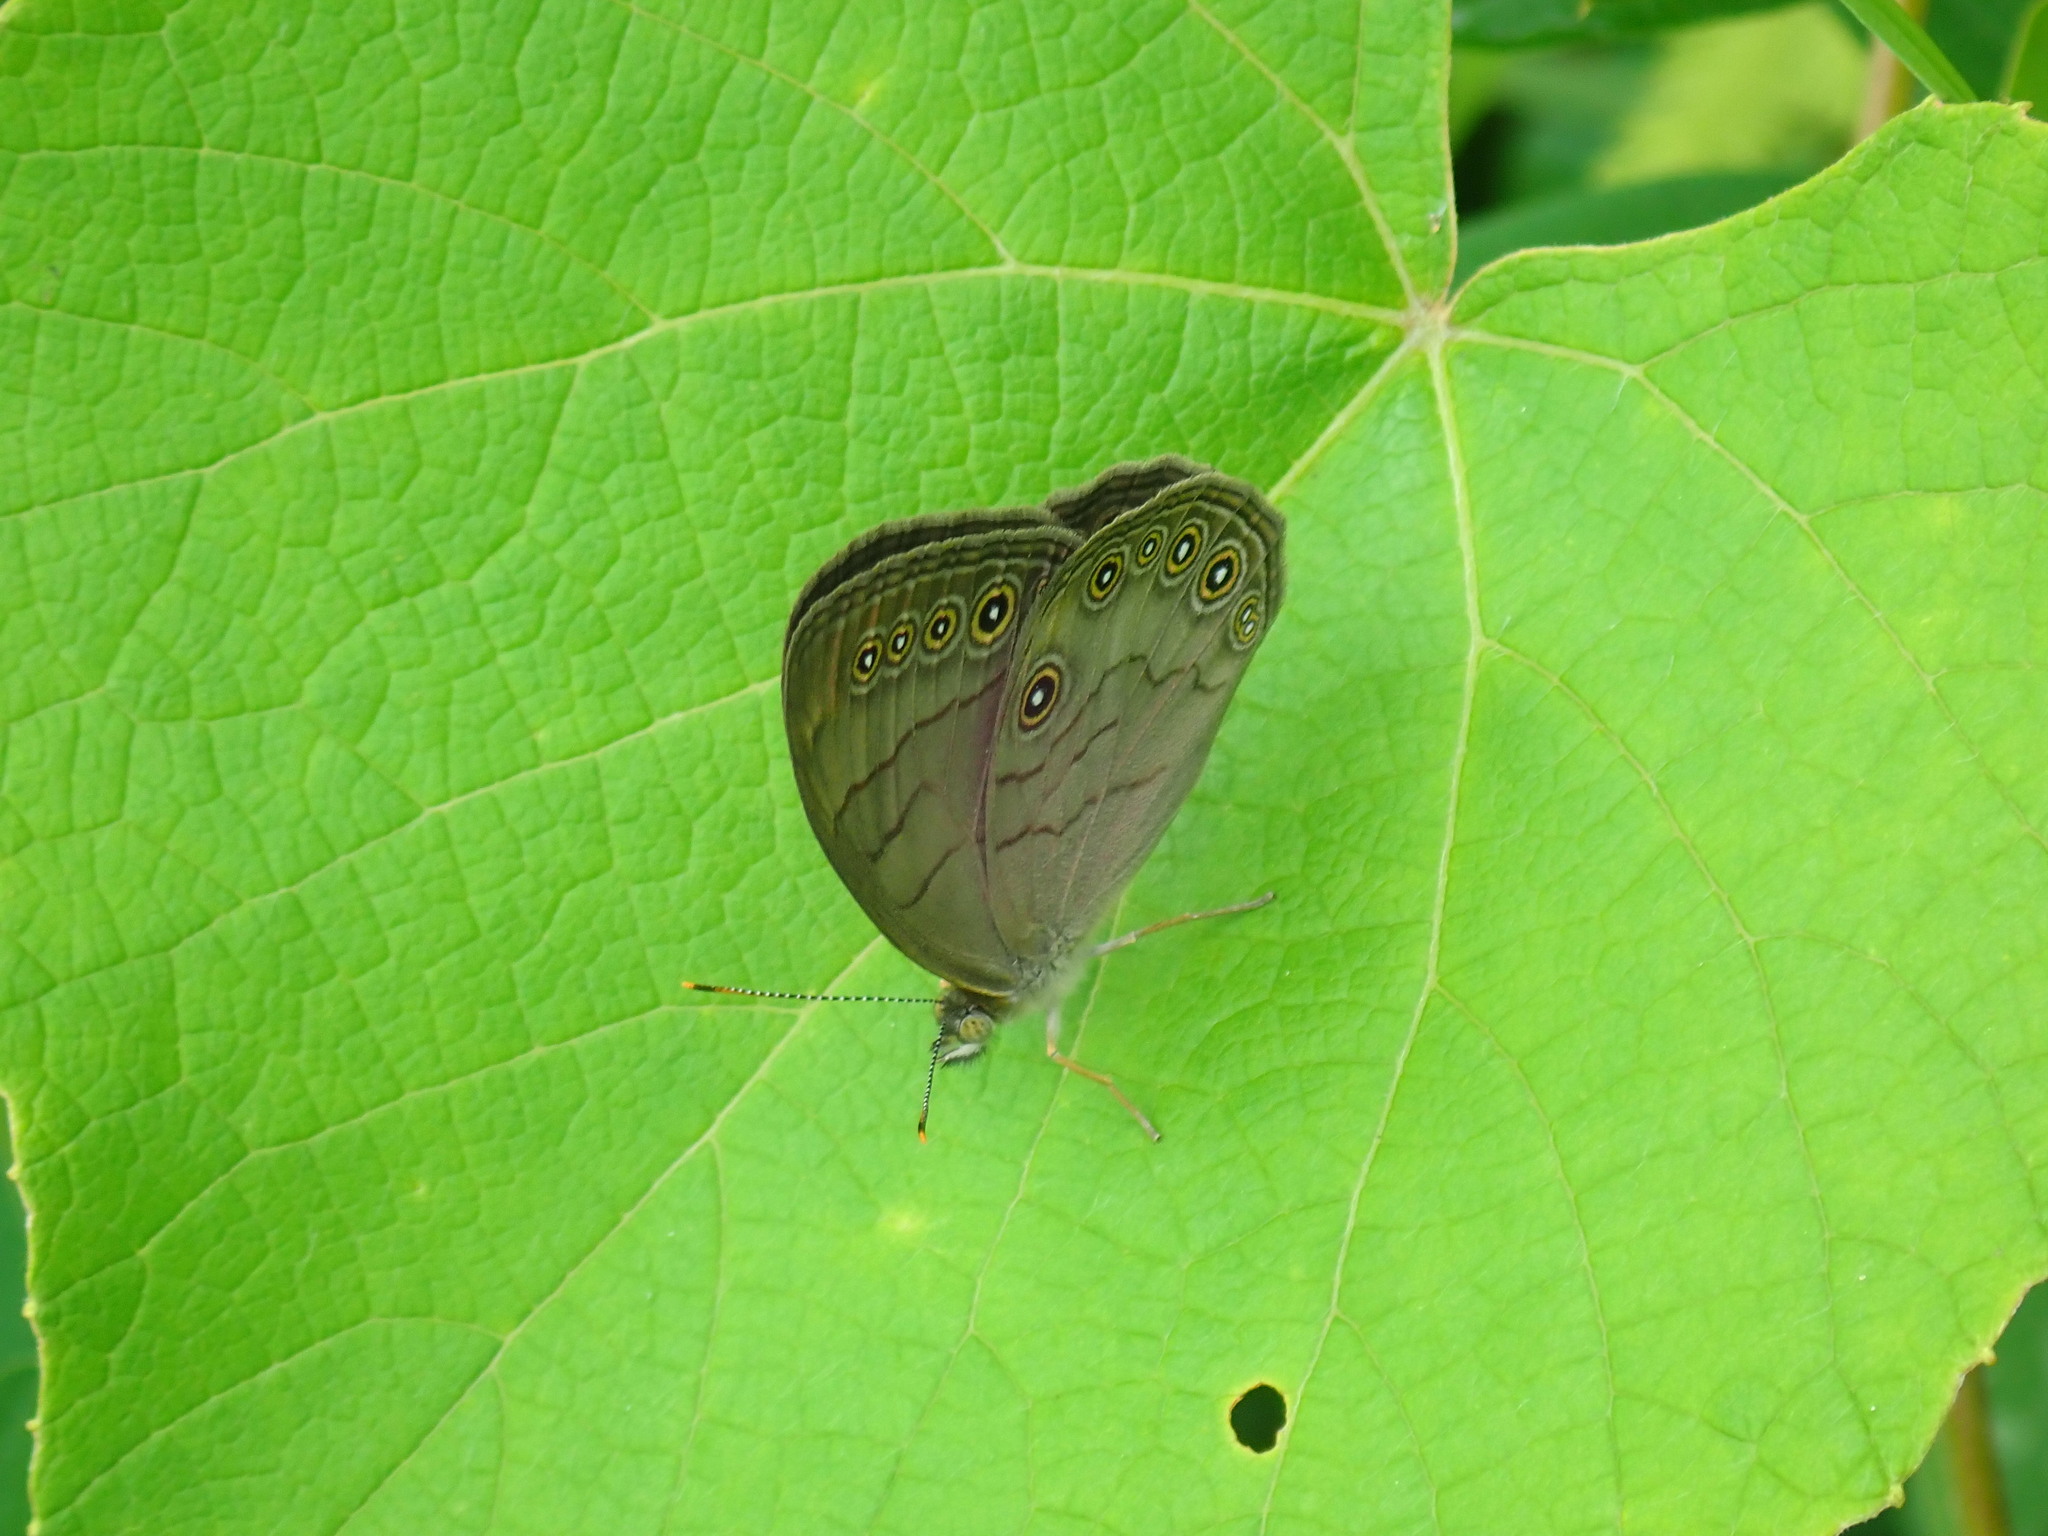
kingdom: Animalia
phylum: Arthropoda
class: Insecta
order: Lepidoptera
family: Nymphalidae
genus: Lethe
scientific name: Lethe eurydice
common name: Eyed brown
